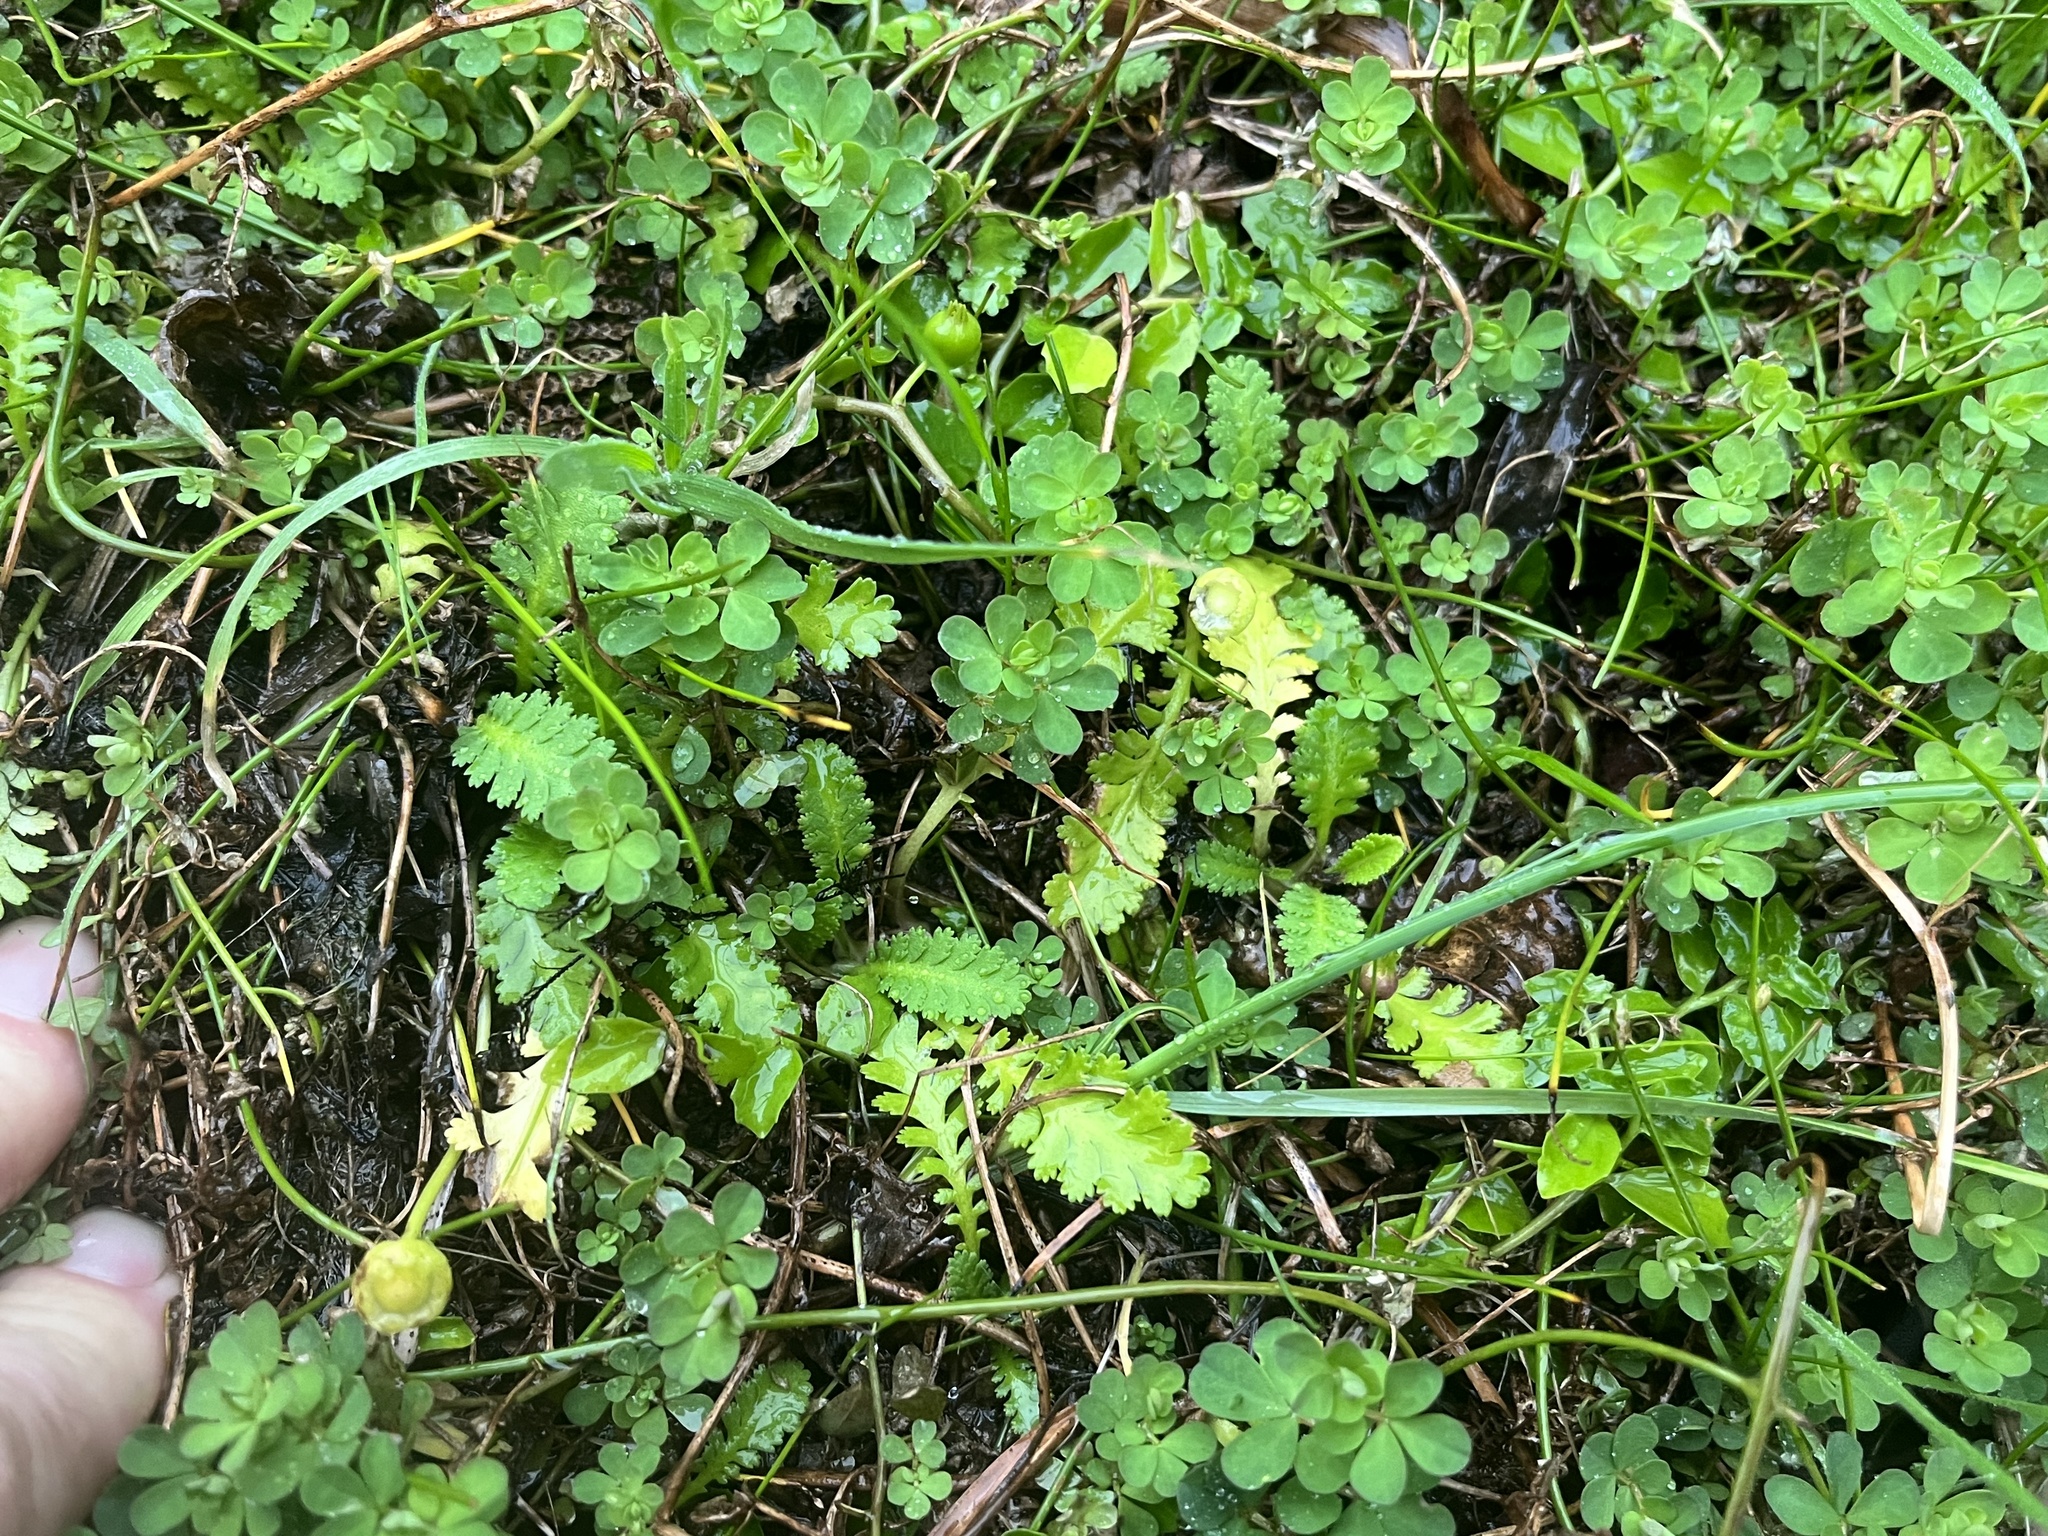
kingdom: Plantae
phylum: Tracheophyta
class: Magnoliopsida
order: Asterales
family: Asteraceae
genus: Leptinella
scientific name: Leptinella potentillina
